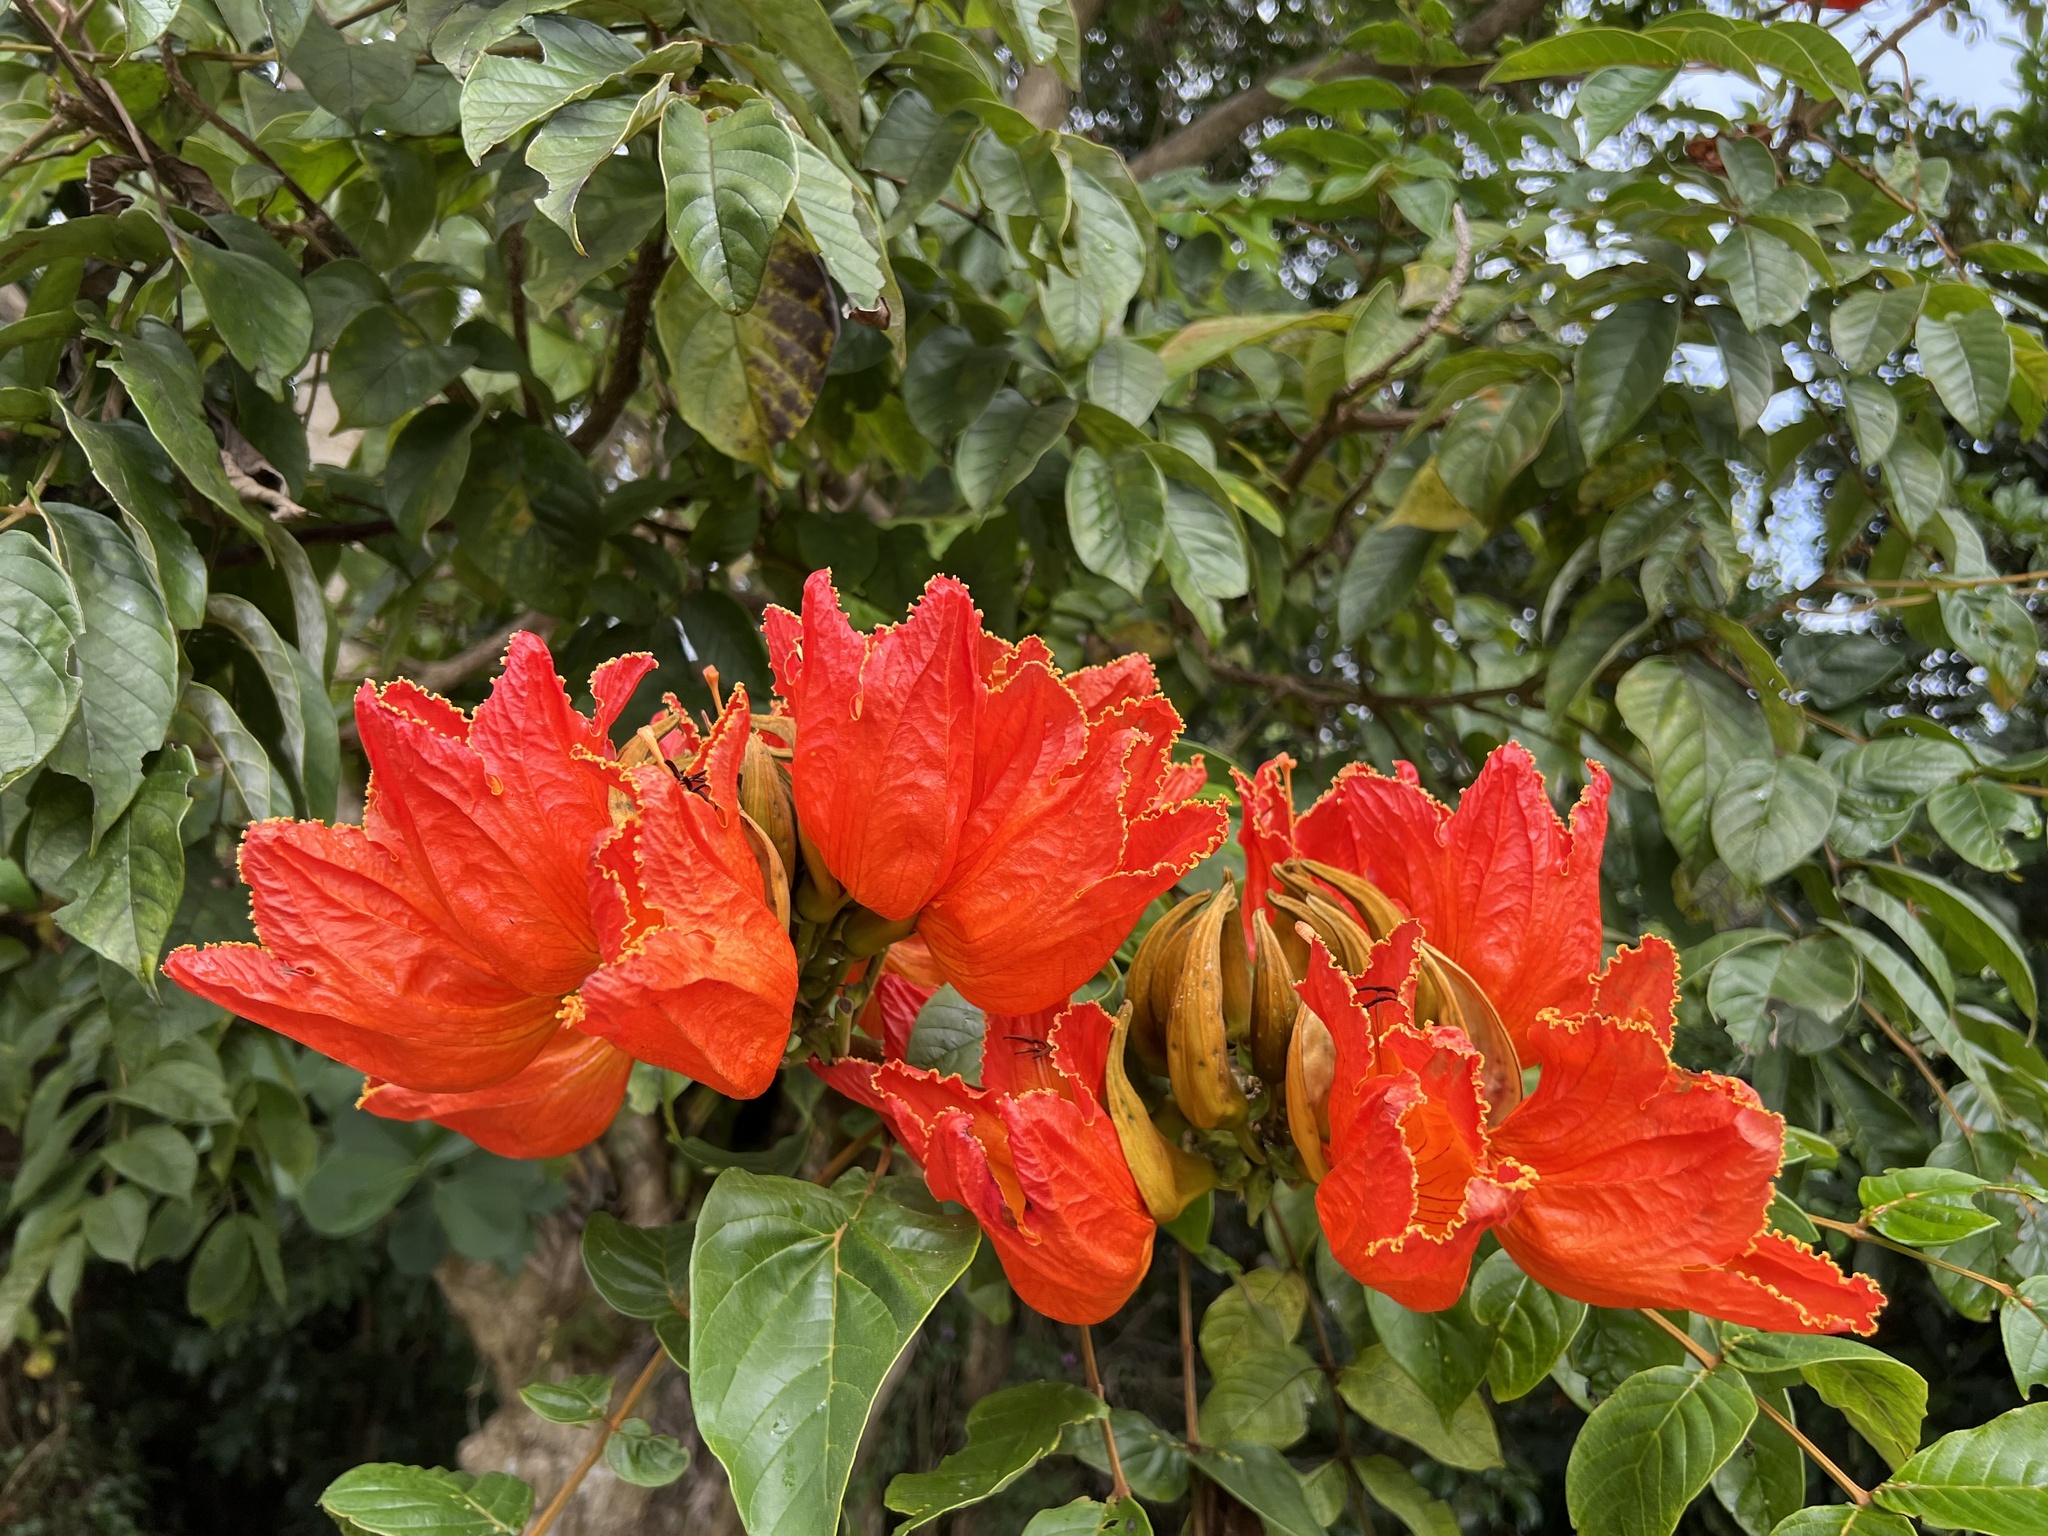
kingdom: Plantae
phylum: Tracheophyta
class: Magnoliopsida
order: Lamiales
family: Bignoniaceae
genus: Spathodea
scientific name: Spathodea campanulata
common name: African tuliptree
